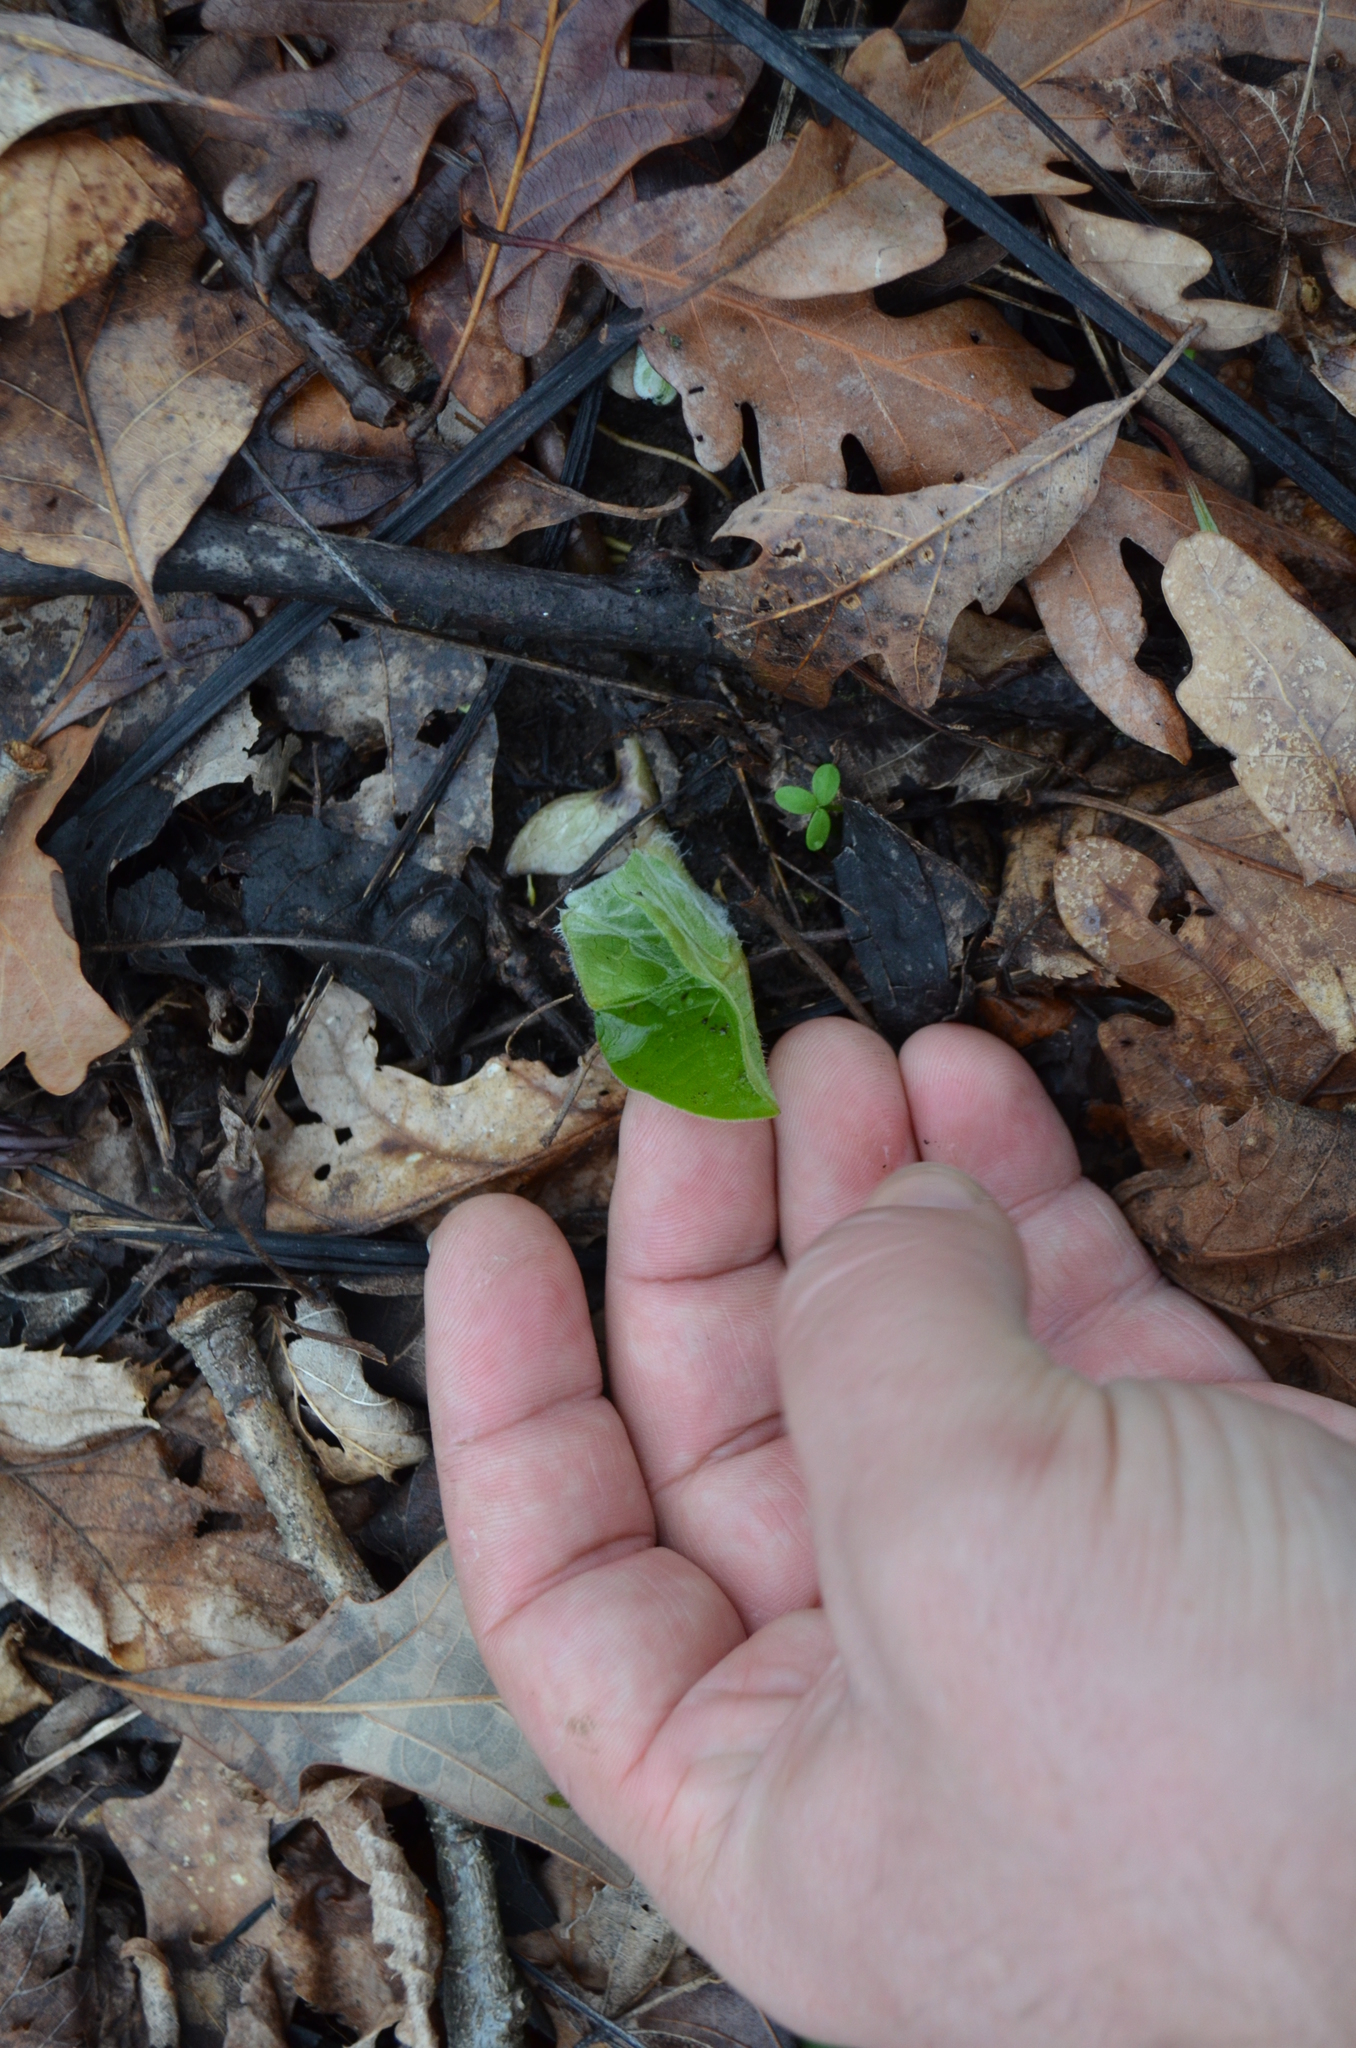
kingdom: Plantae
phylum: Tracheophyta
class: Magnoliopsida
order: Piperales
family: Aristolochiaceae
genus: Asarum
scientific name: Asarum canadense
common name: Wild ginger
